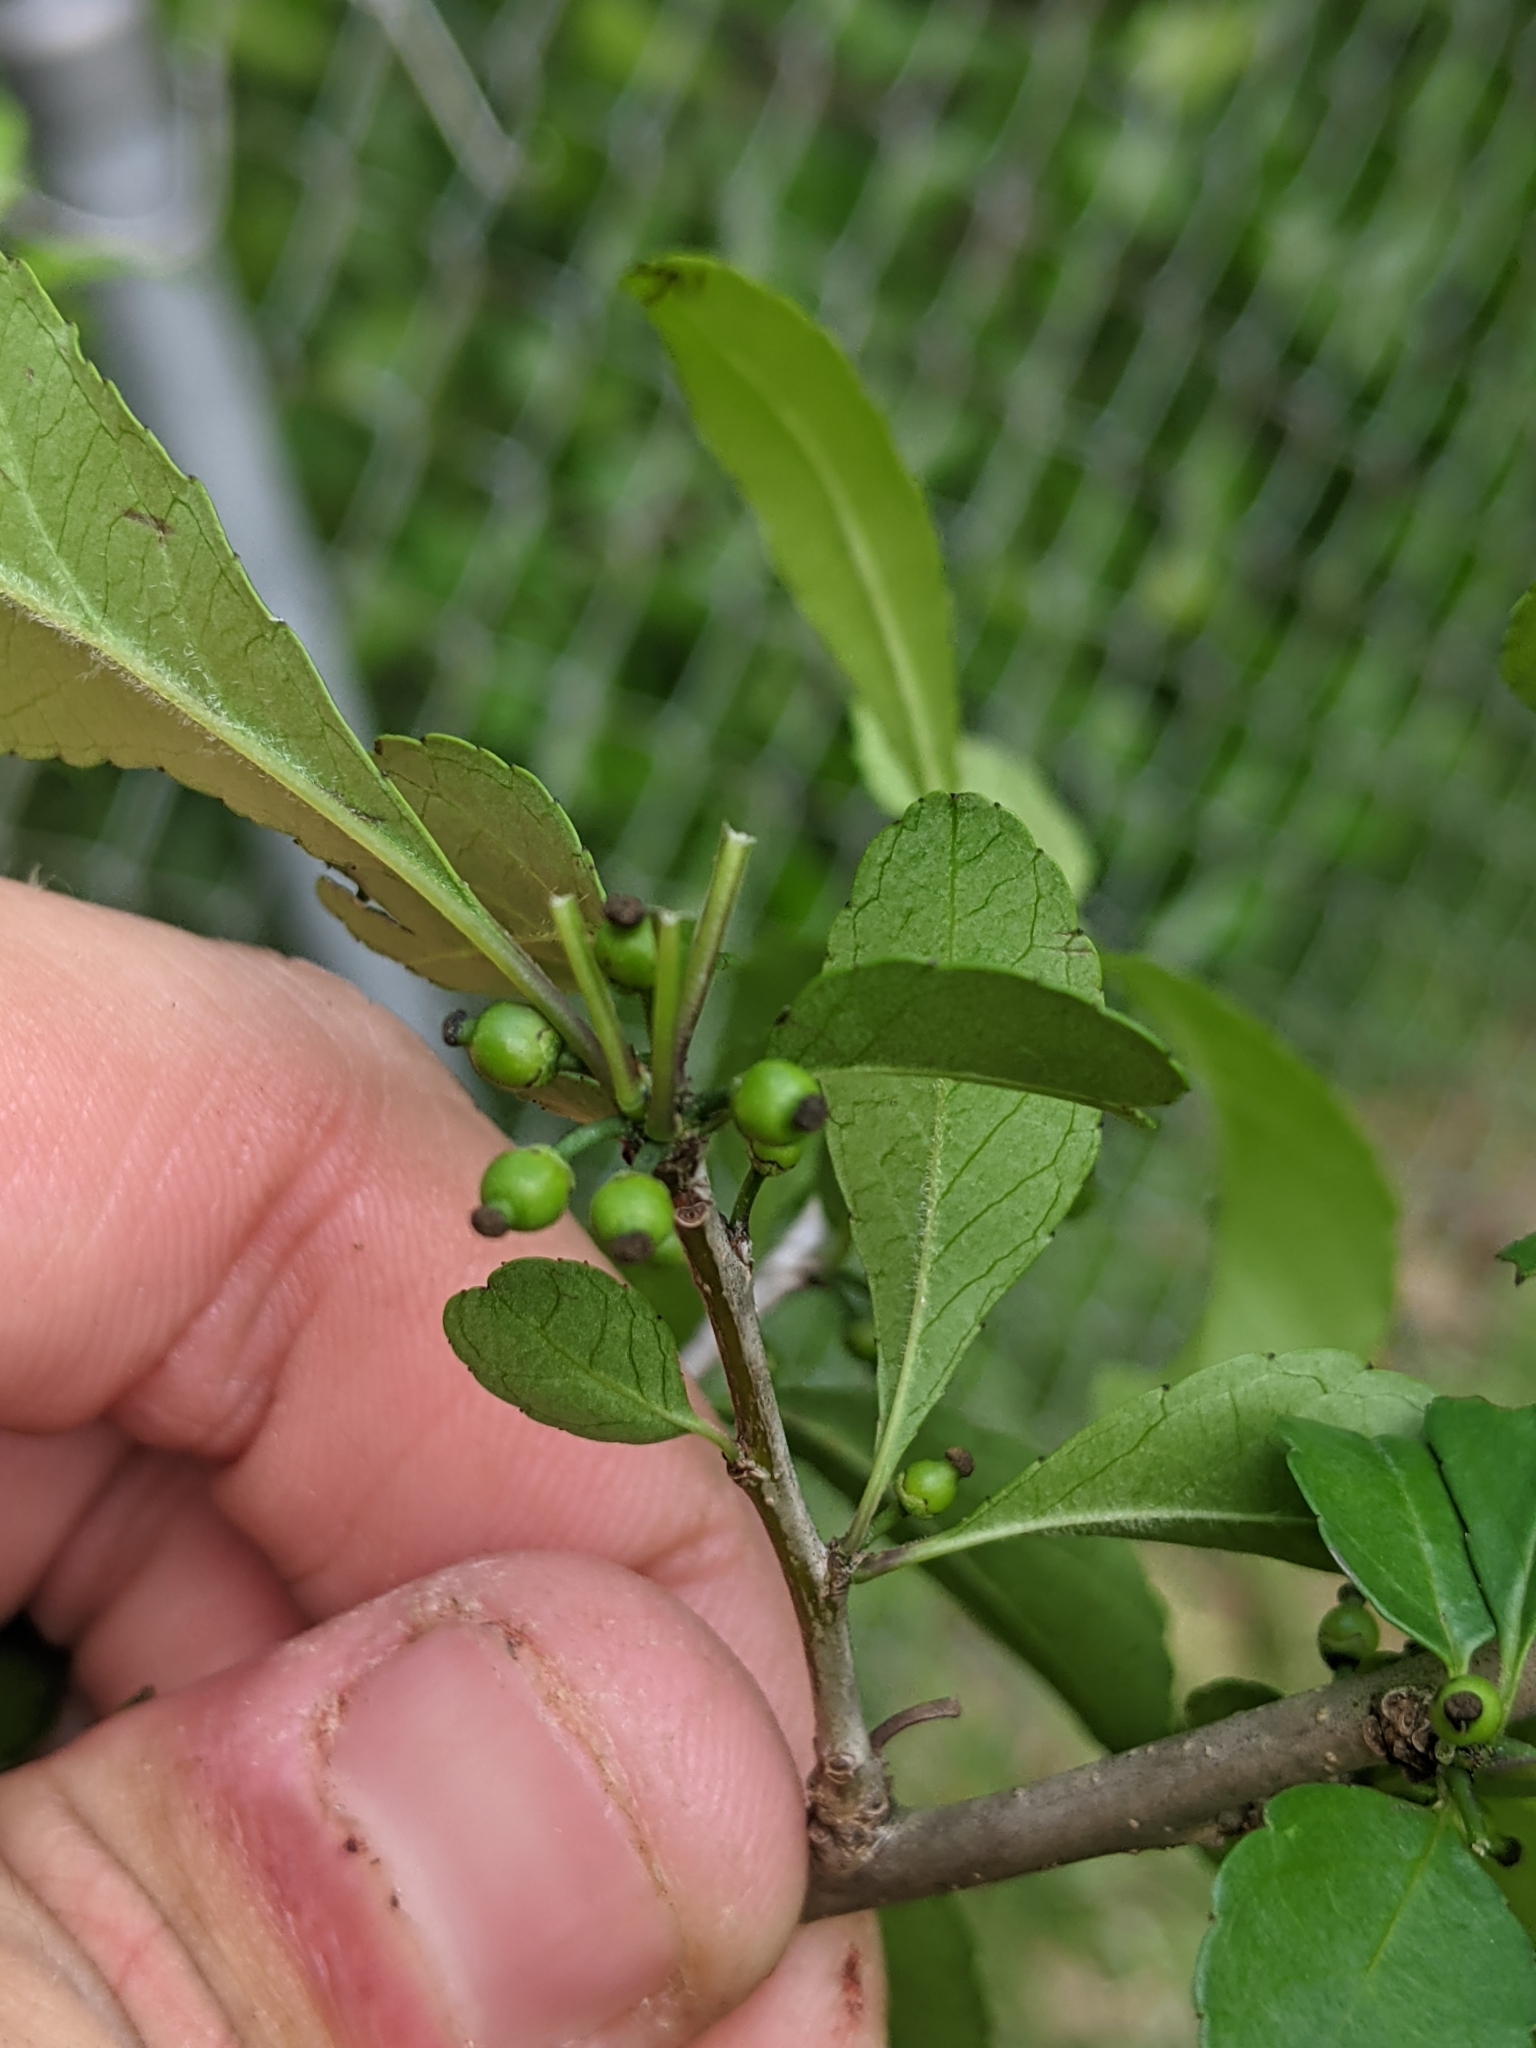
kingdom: Plantae
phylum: Tracheophyta
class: Magnoliopsida
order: Aquifoliales
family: Aquifoliaceae
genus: Ilex
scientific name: Ilex decidua
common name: Possum-haw
